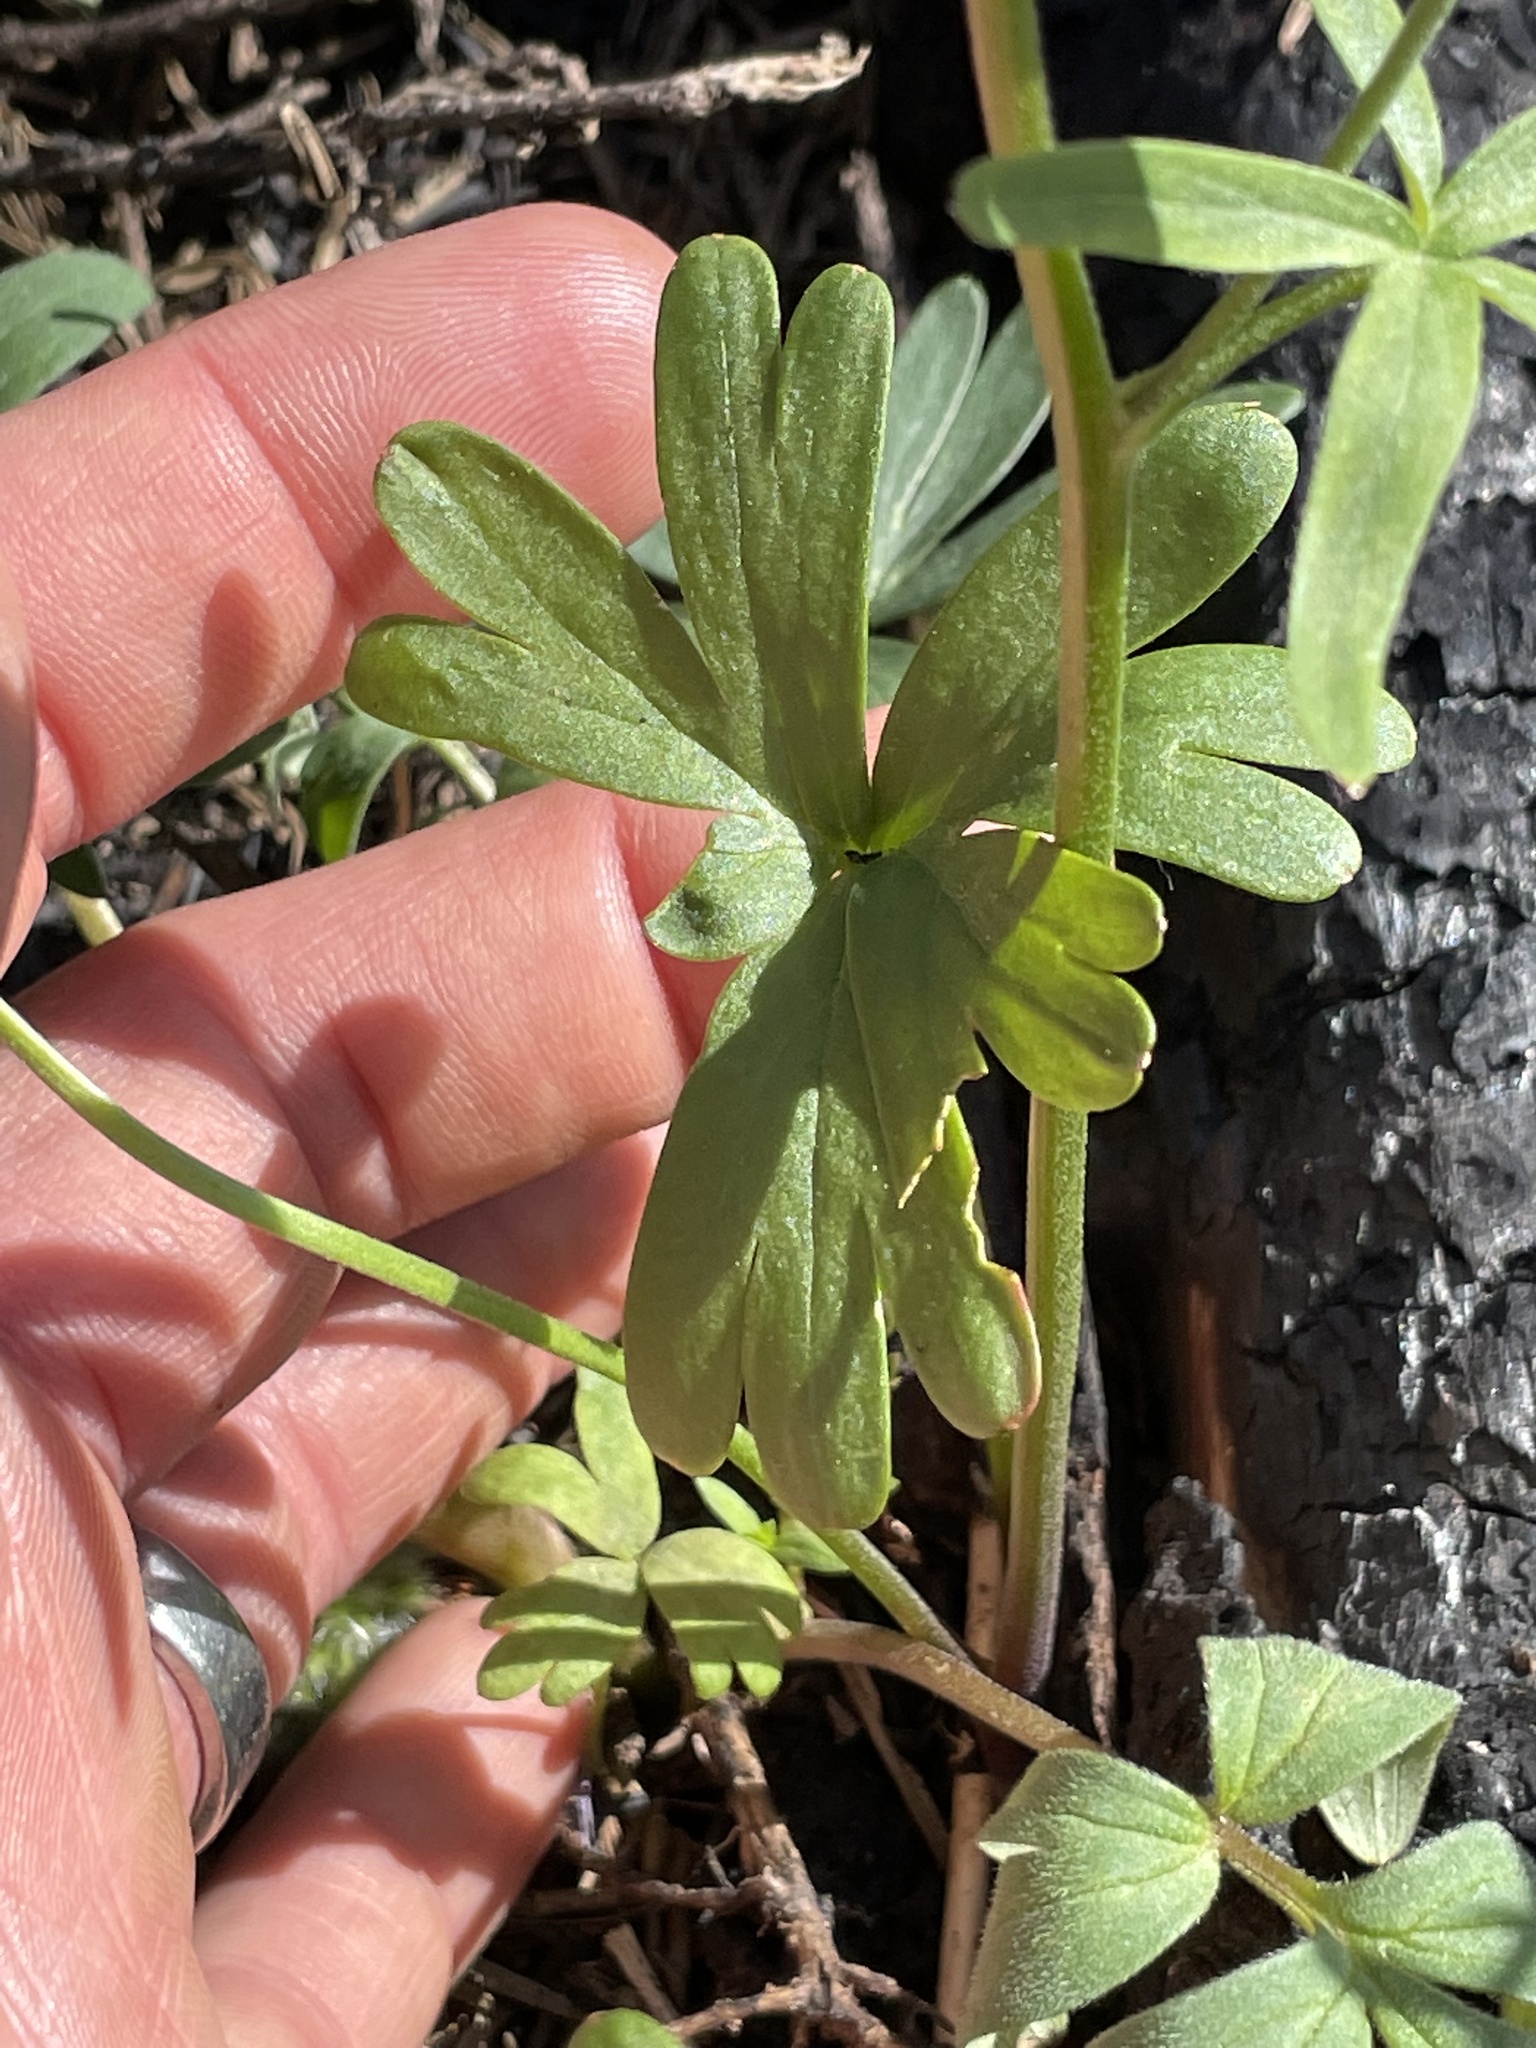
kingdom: Plantae
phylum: Tracheophyta
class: Magnoliopsida
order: Ranunculales
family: Ranunculaceae
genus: Delphinium
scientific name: Delphinium nuttallianum
